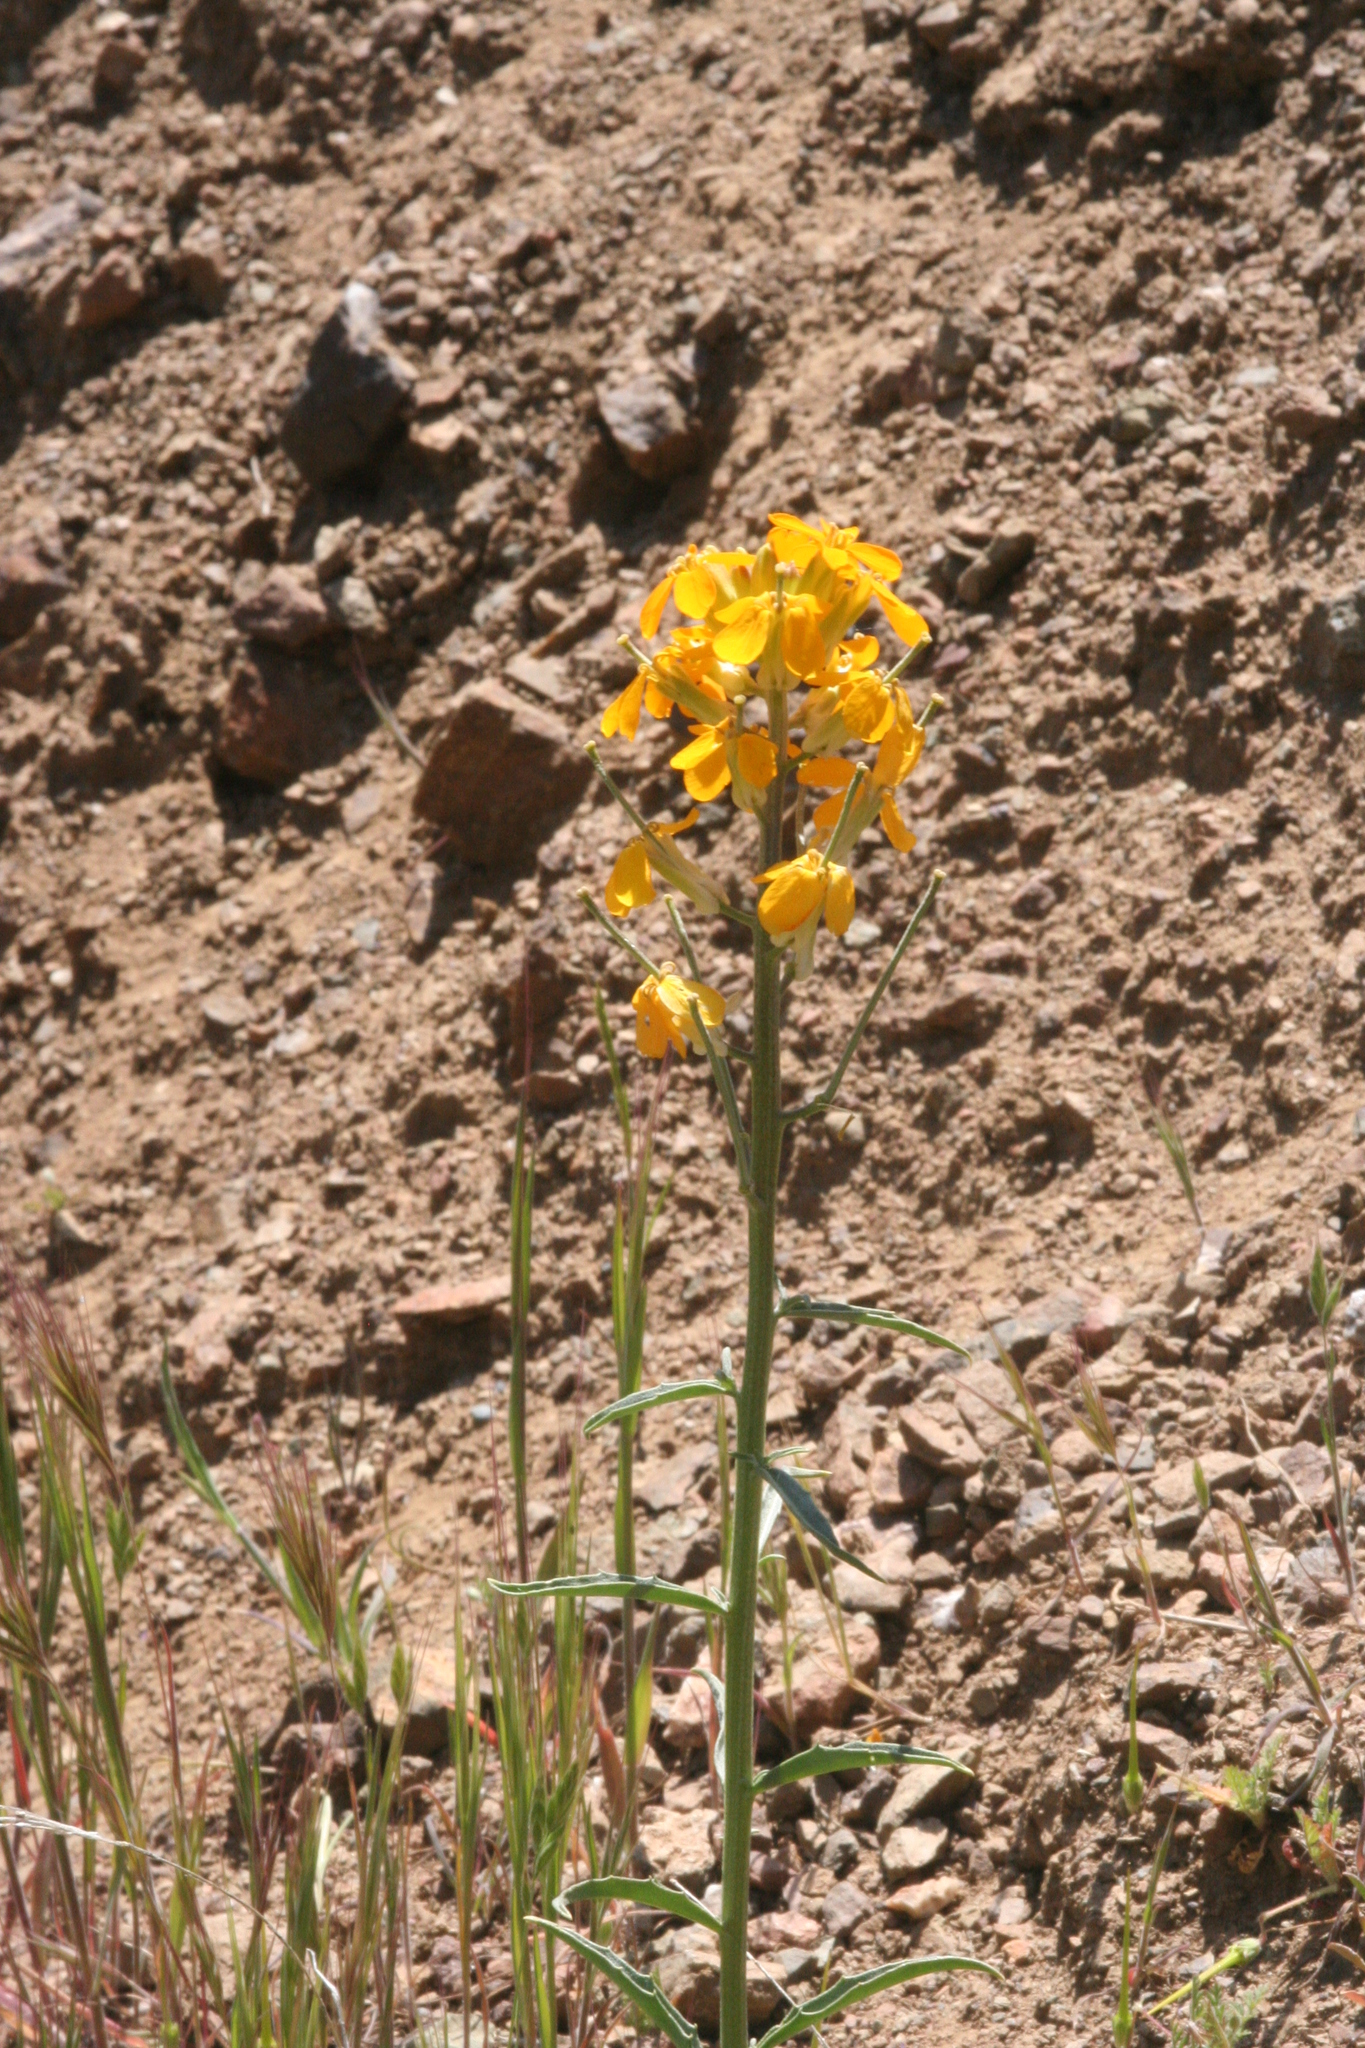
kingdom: Plantae
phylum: Tracheophyta
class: Magnoliopsida
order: Brassicales
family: Brassicaceae
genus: Erysimum
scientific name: Erysimum capitatum
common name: Western wallflower
